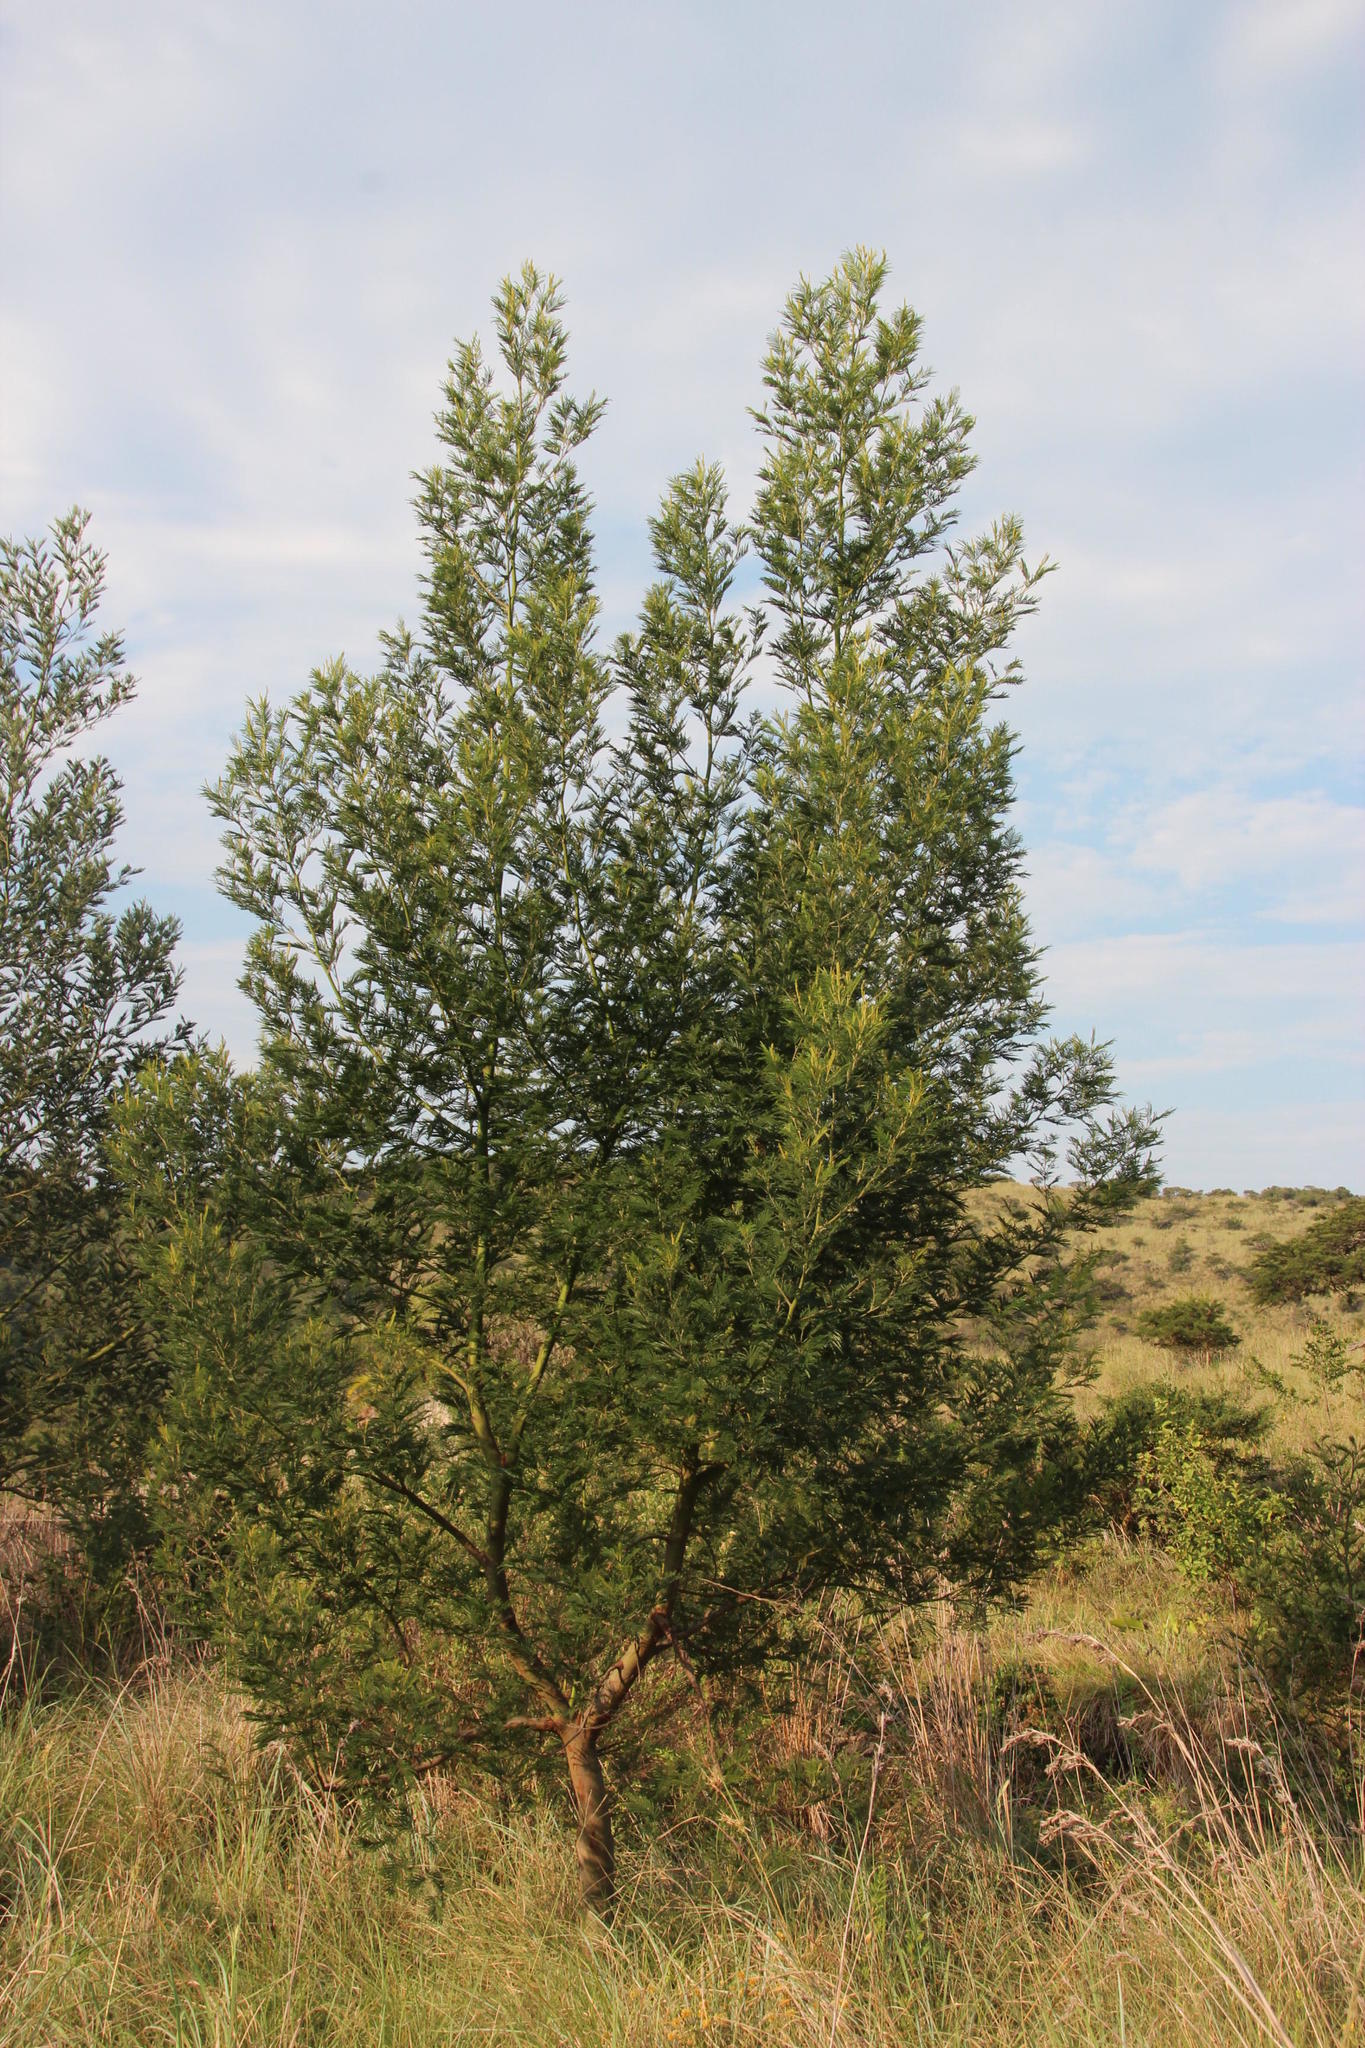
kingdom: Plantae
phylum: Tracheophyta
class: Magnoliopsida
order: Fabales
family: Fabaceae
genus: Acacia
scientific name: Acacia mearnsii
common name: Black wattle
